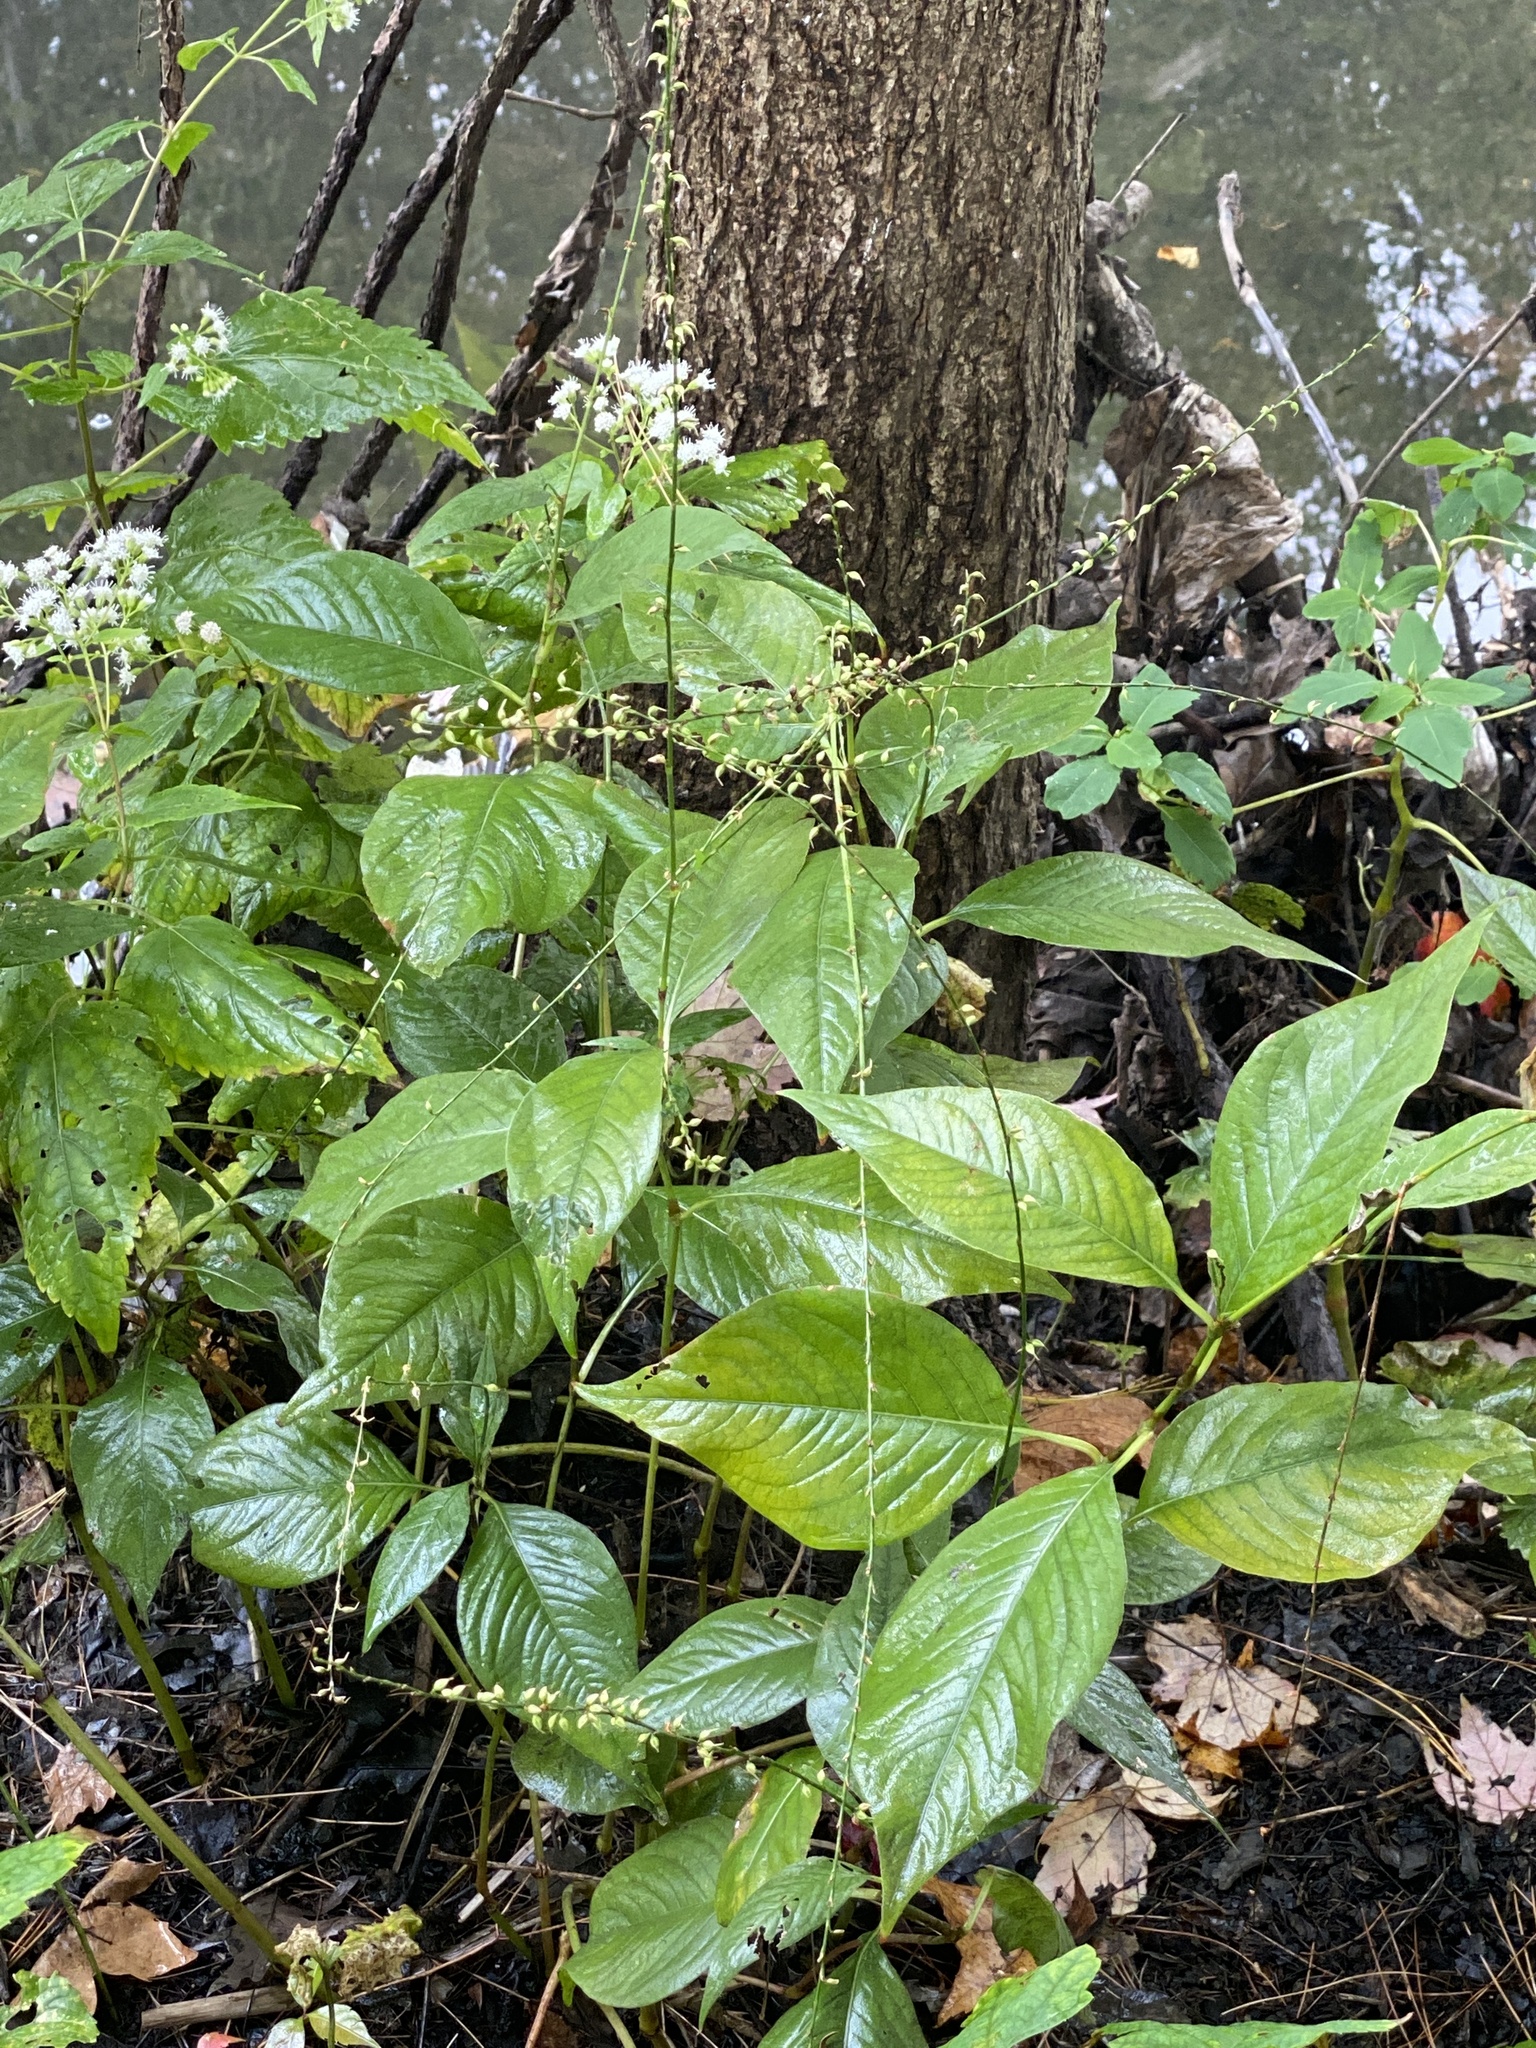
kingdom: Plantae
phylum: Tracheophyta
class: Magnoliopsida
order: Caryophyllales
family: Polygonaceae
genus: Persicaria
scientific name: Persicaria virginiana
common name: Jumpseed
